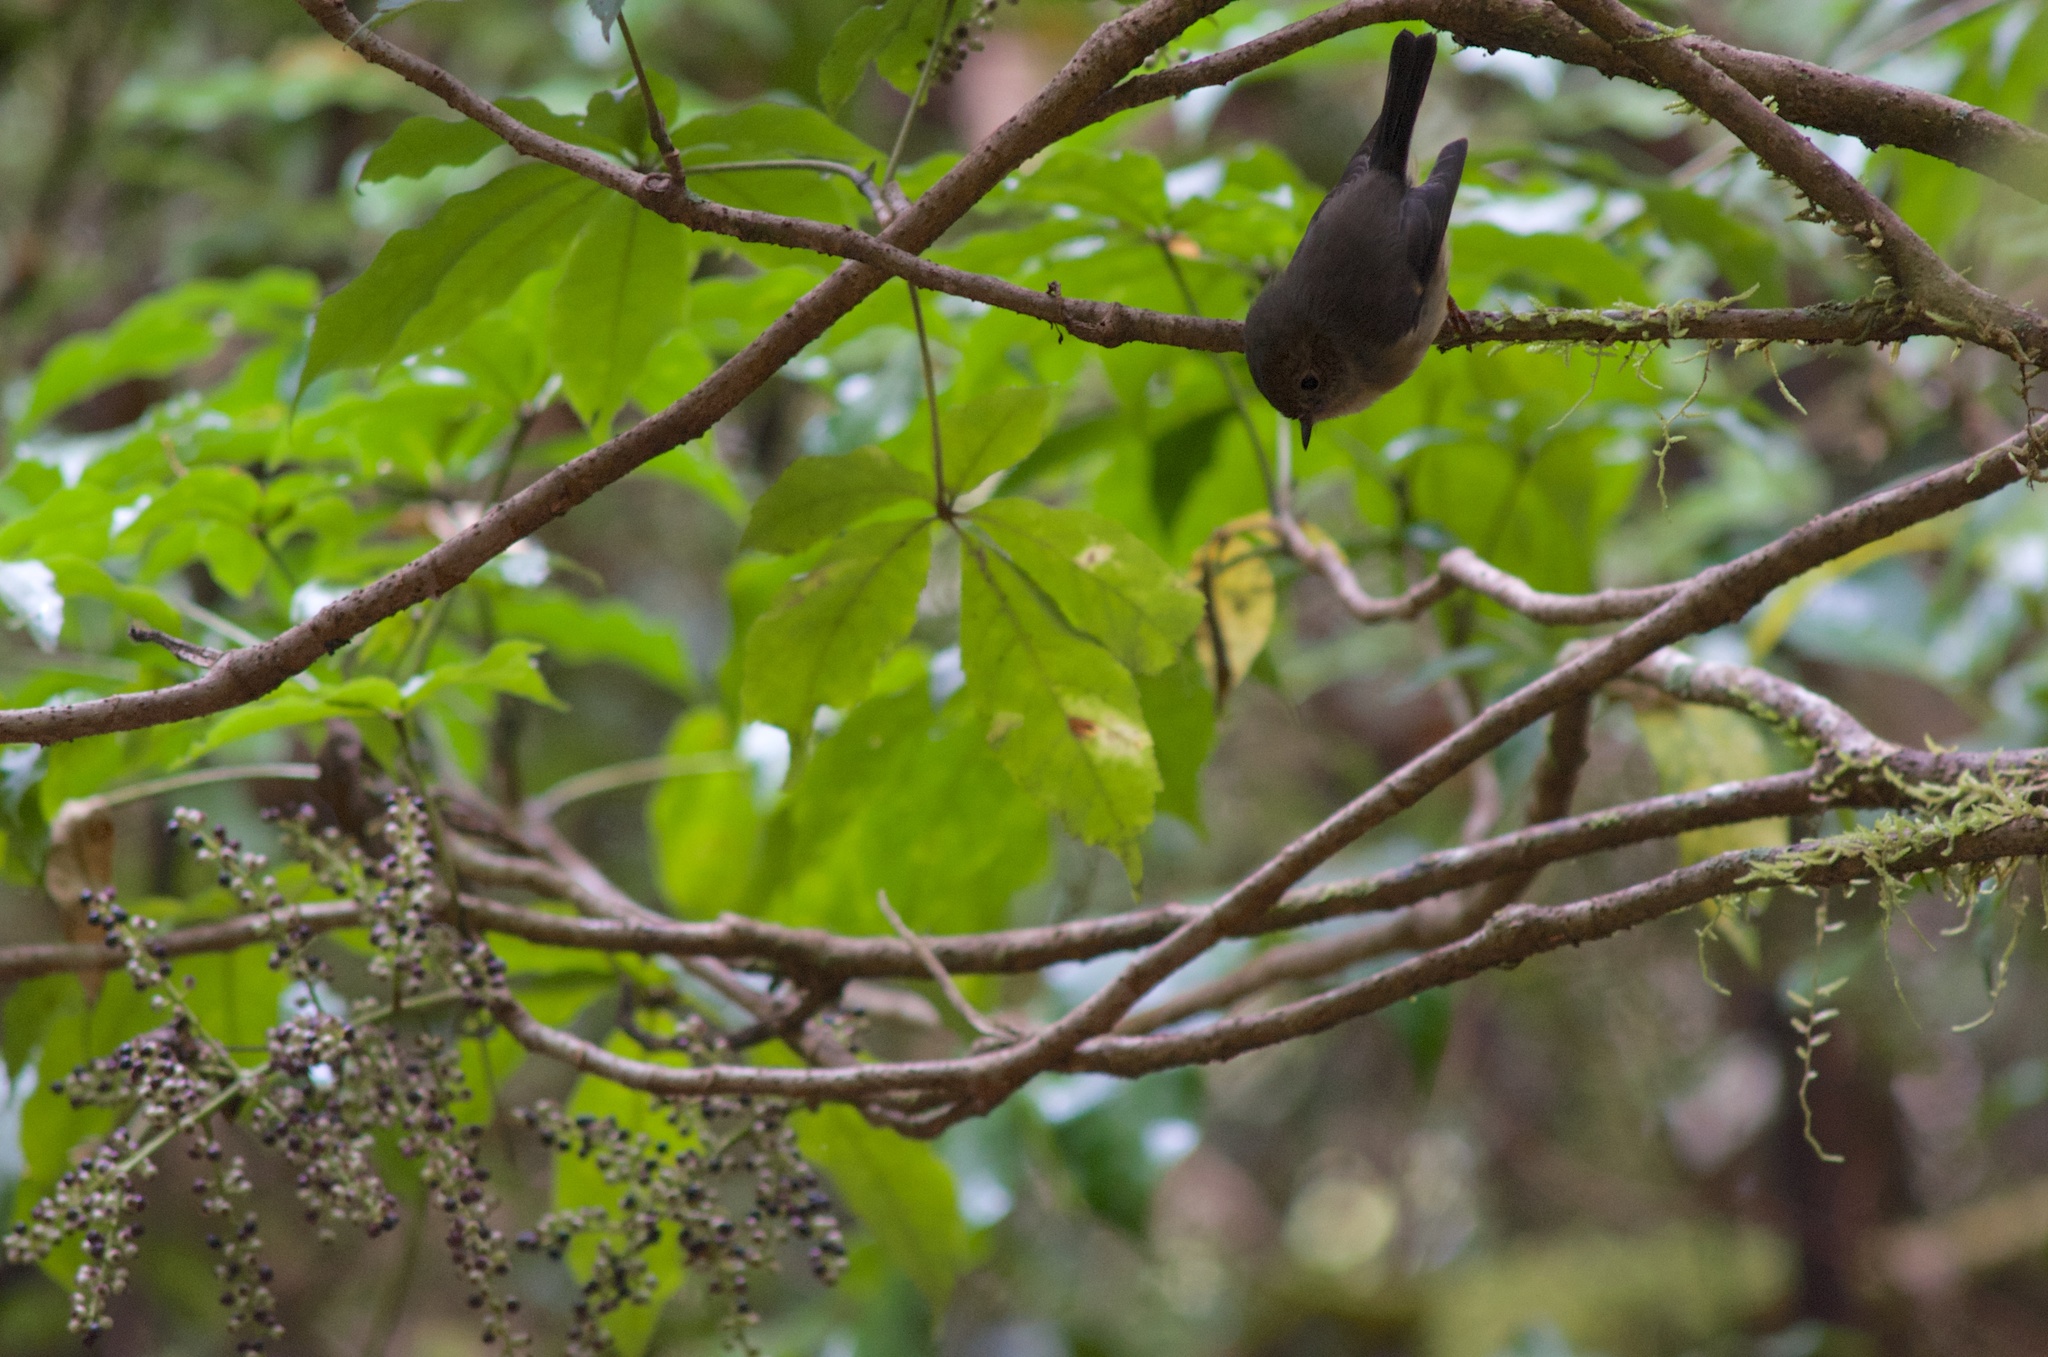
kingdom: Animalia
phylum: Chordata
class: Aves
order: Passeriformes
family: Petroicidae
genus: Petroica
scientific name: Petroica macrocephala
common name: Tomtit
